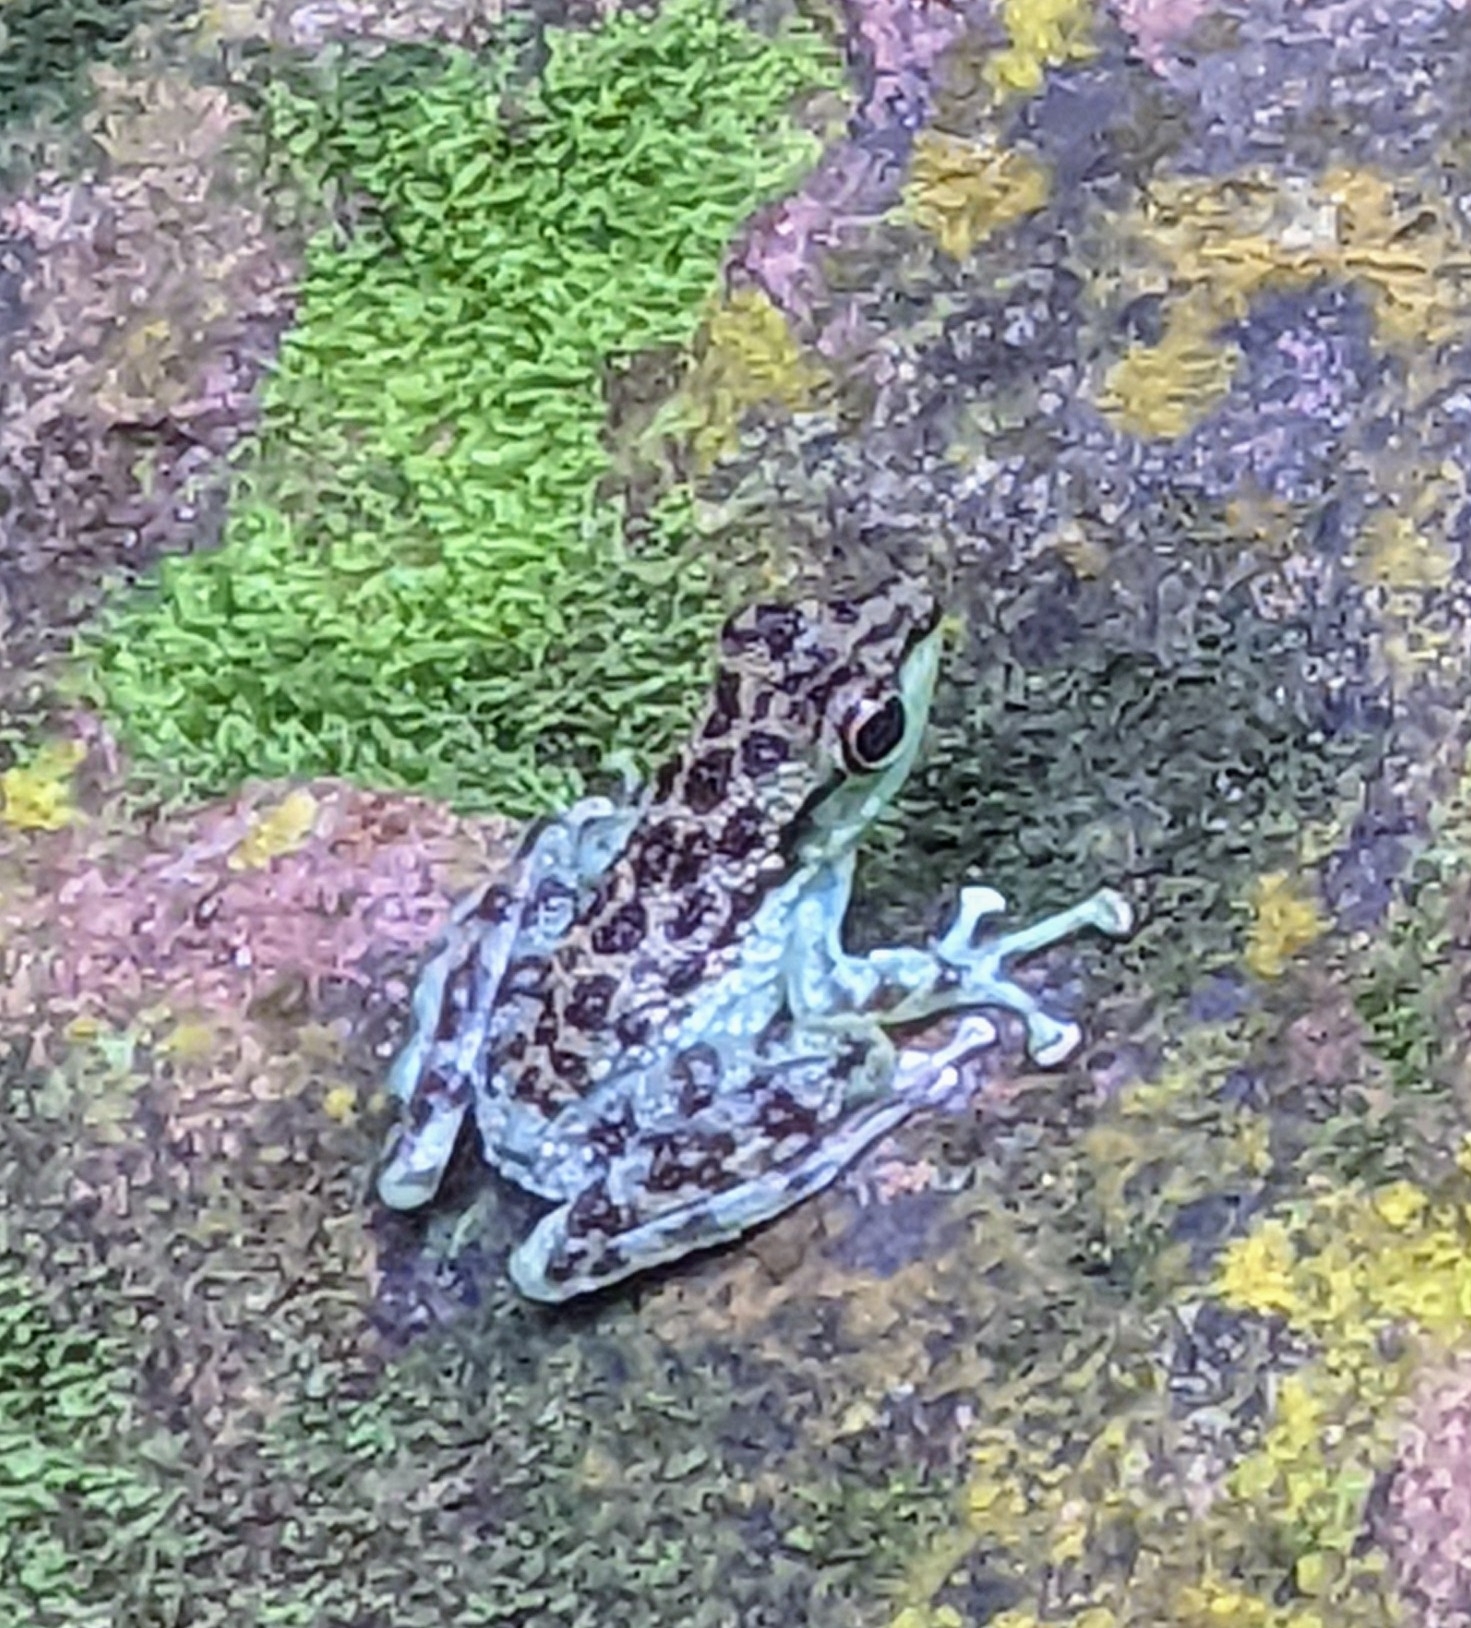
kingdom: Animalia
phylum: Chordata
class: Amphibia
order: Anura
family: Ranidae
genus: Staurois
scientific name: Staurois guttatus
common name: Black-spotted rock frog
